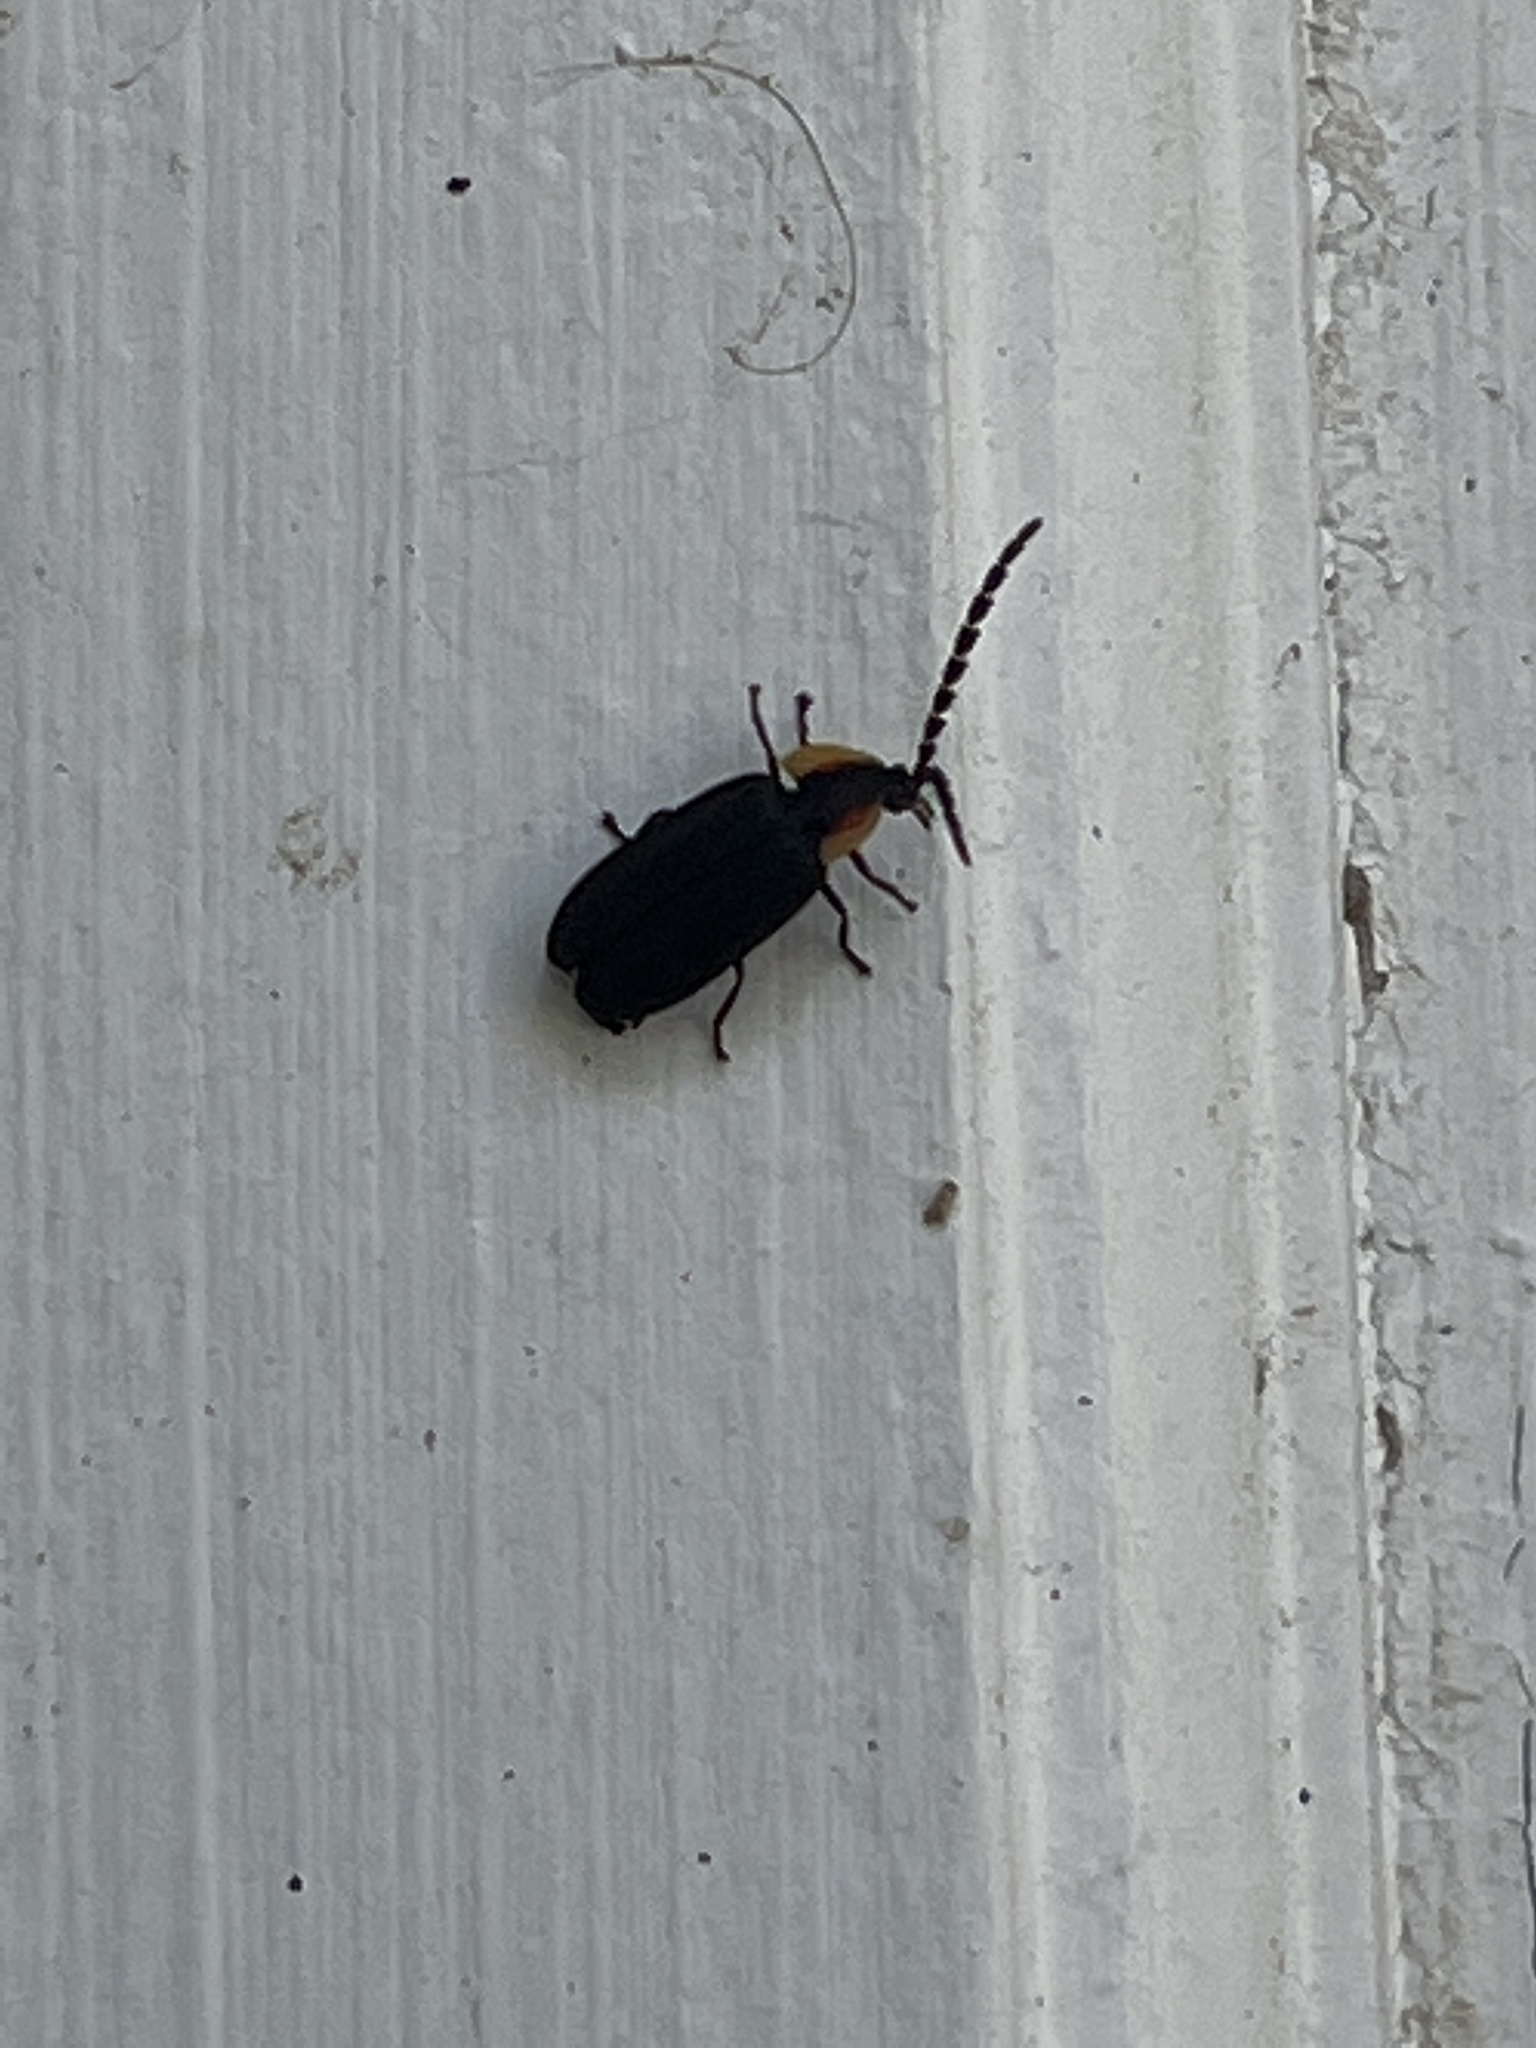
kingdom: Animalia
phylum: Arthropoda
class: Insecta
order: Coleoptera
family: Lampyridae
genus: Lucidota
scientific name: Lucidota atra
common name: Black firefly
